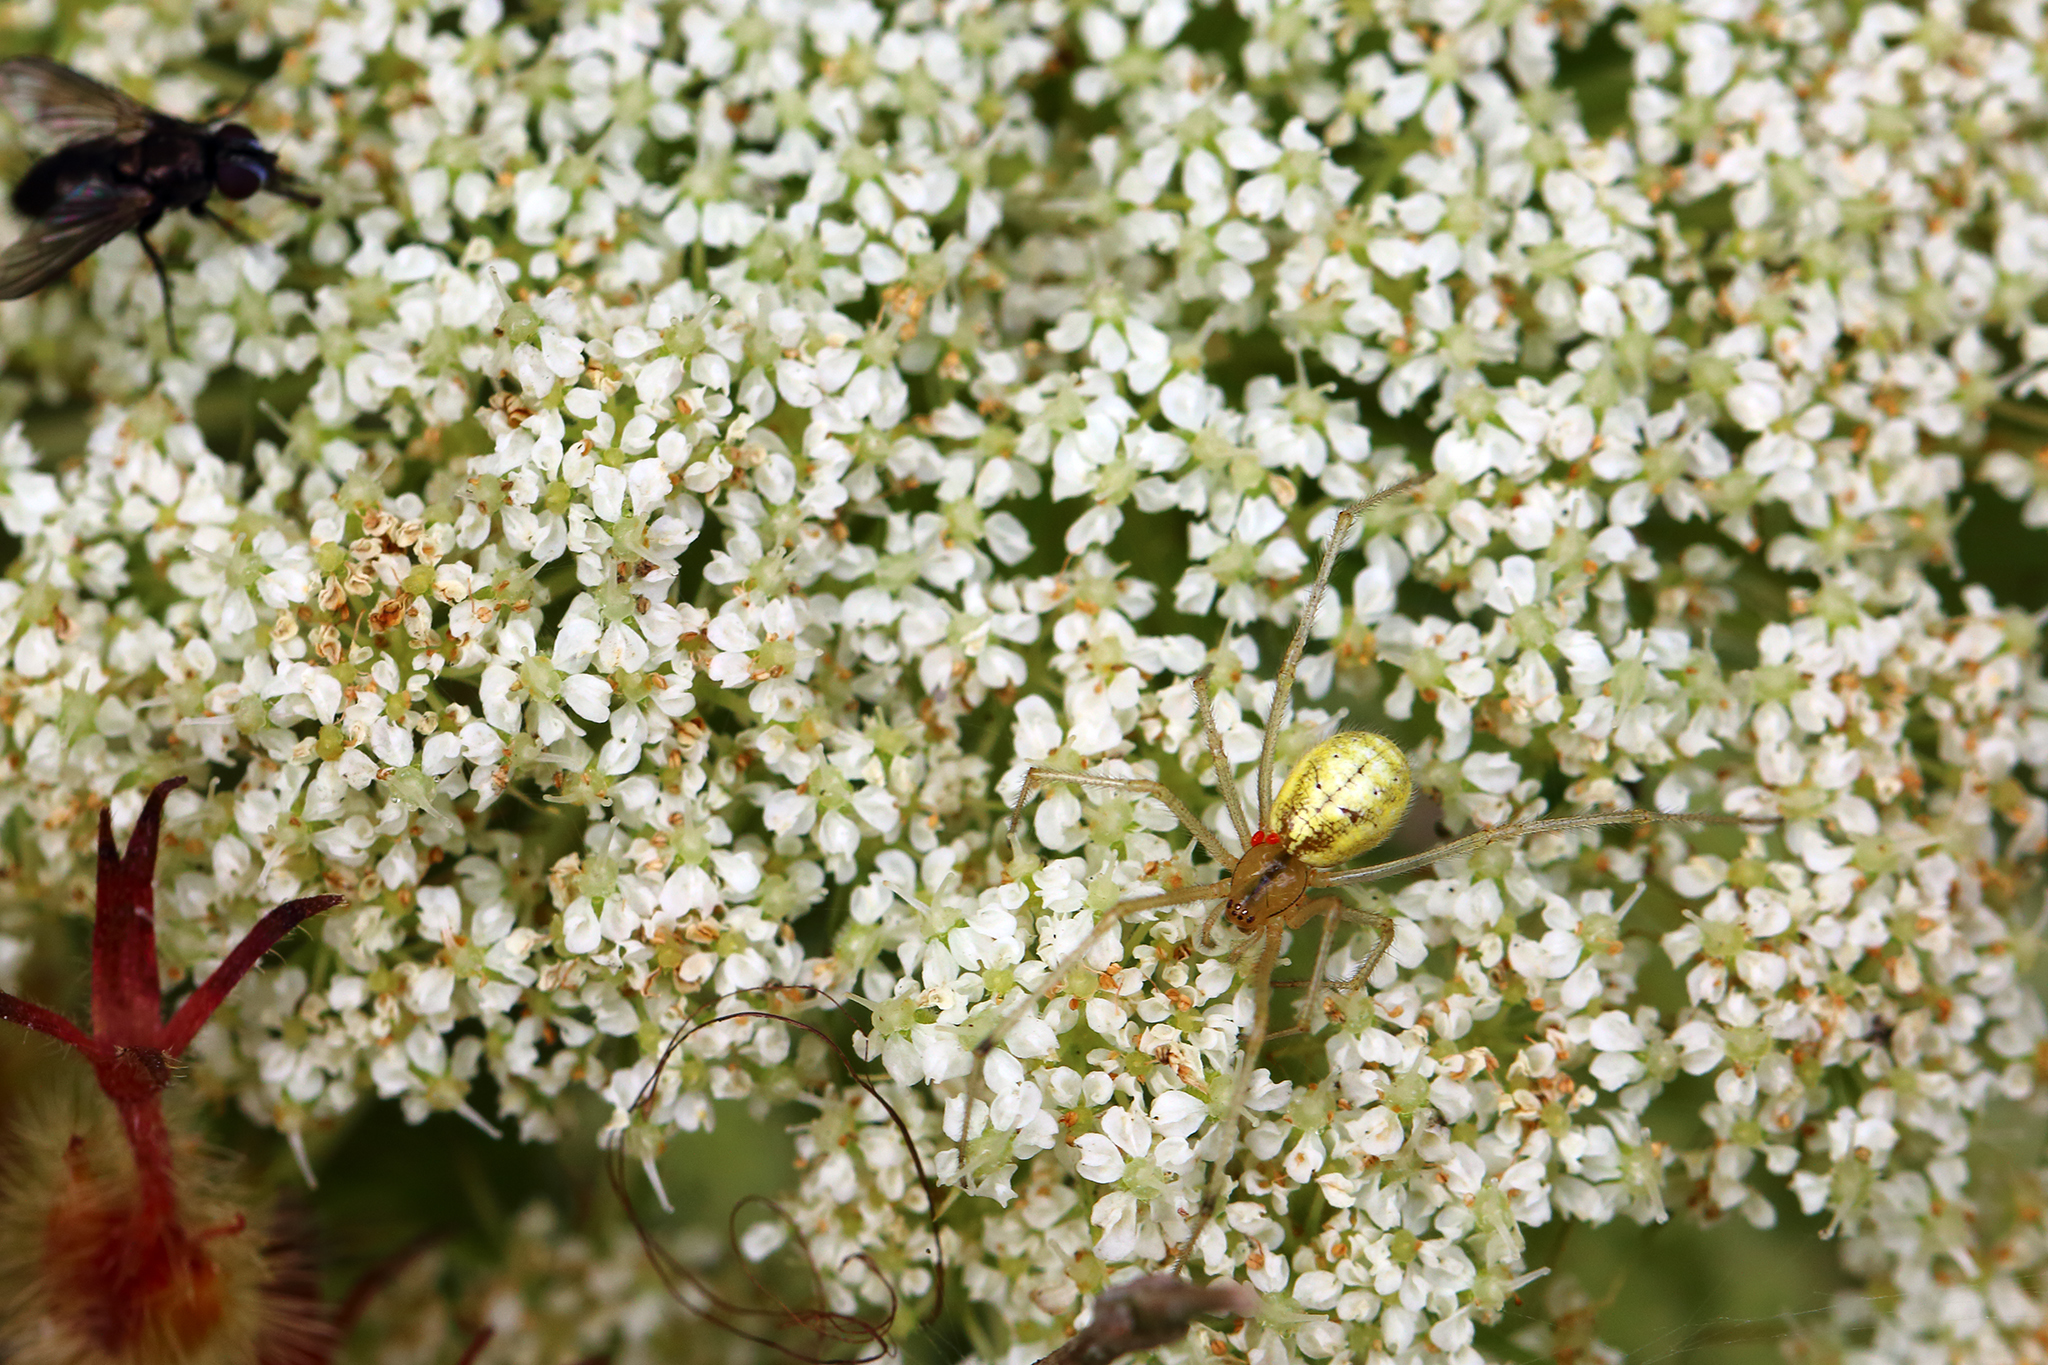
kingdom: Animalia
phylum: Arthropoda
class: Arachnida
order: Araneae
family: Theridiidae
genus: Enoplognatha
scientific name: Enoplognatha
